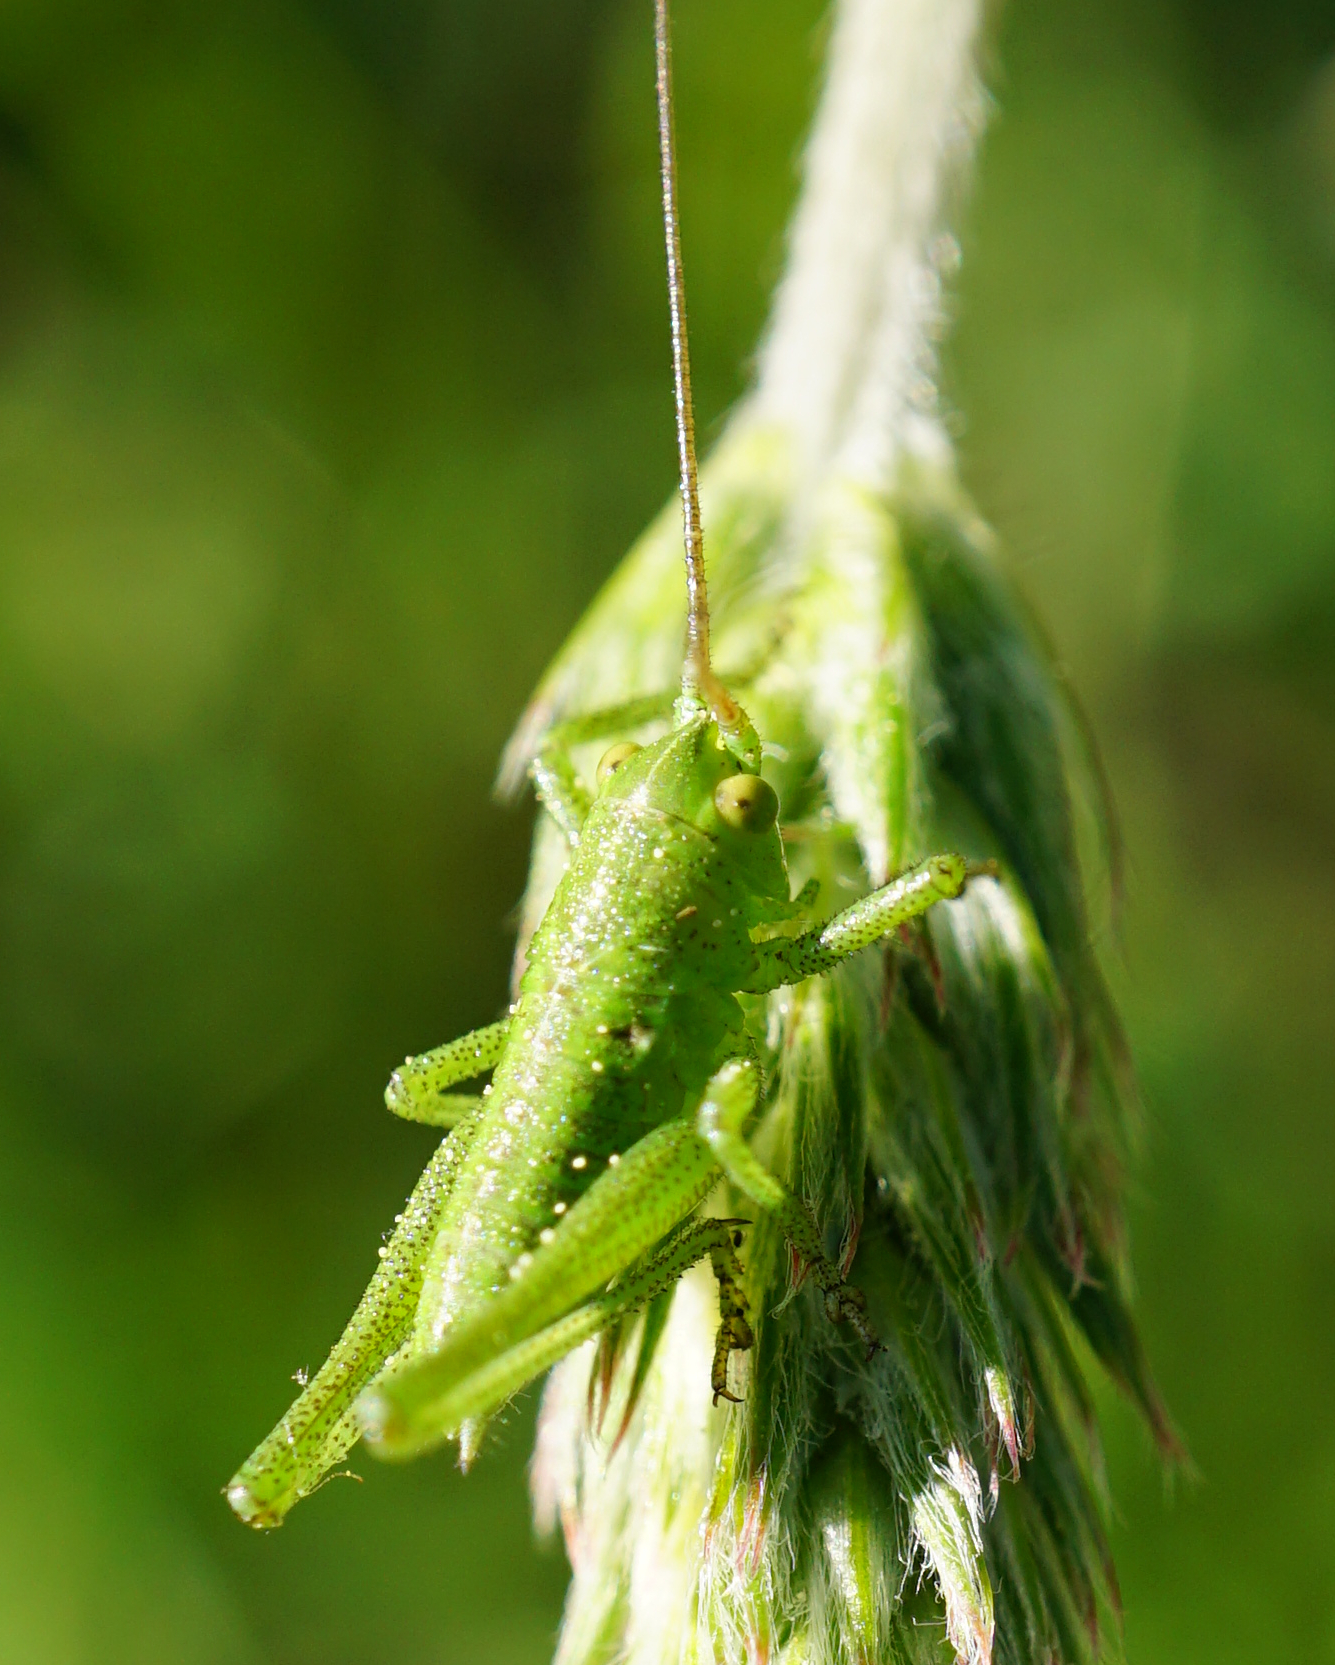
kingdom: Animalia
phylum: Arthropoda
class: Insecta
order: Orthoptera
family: Tettigoniidae
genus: Tettigonia
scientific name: Tettigonia
